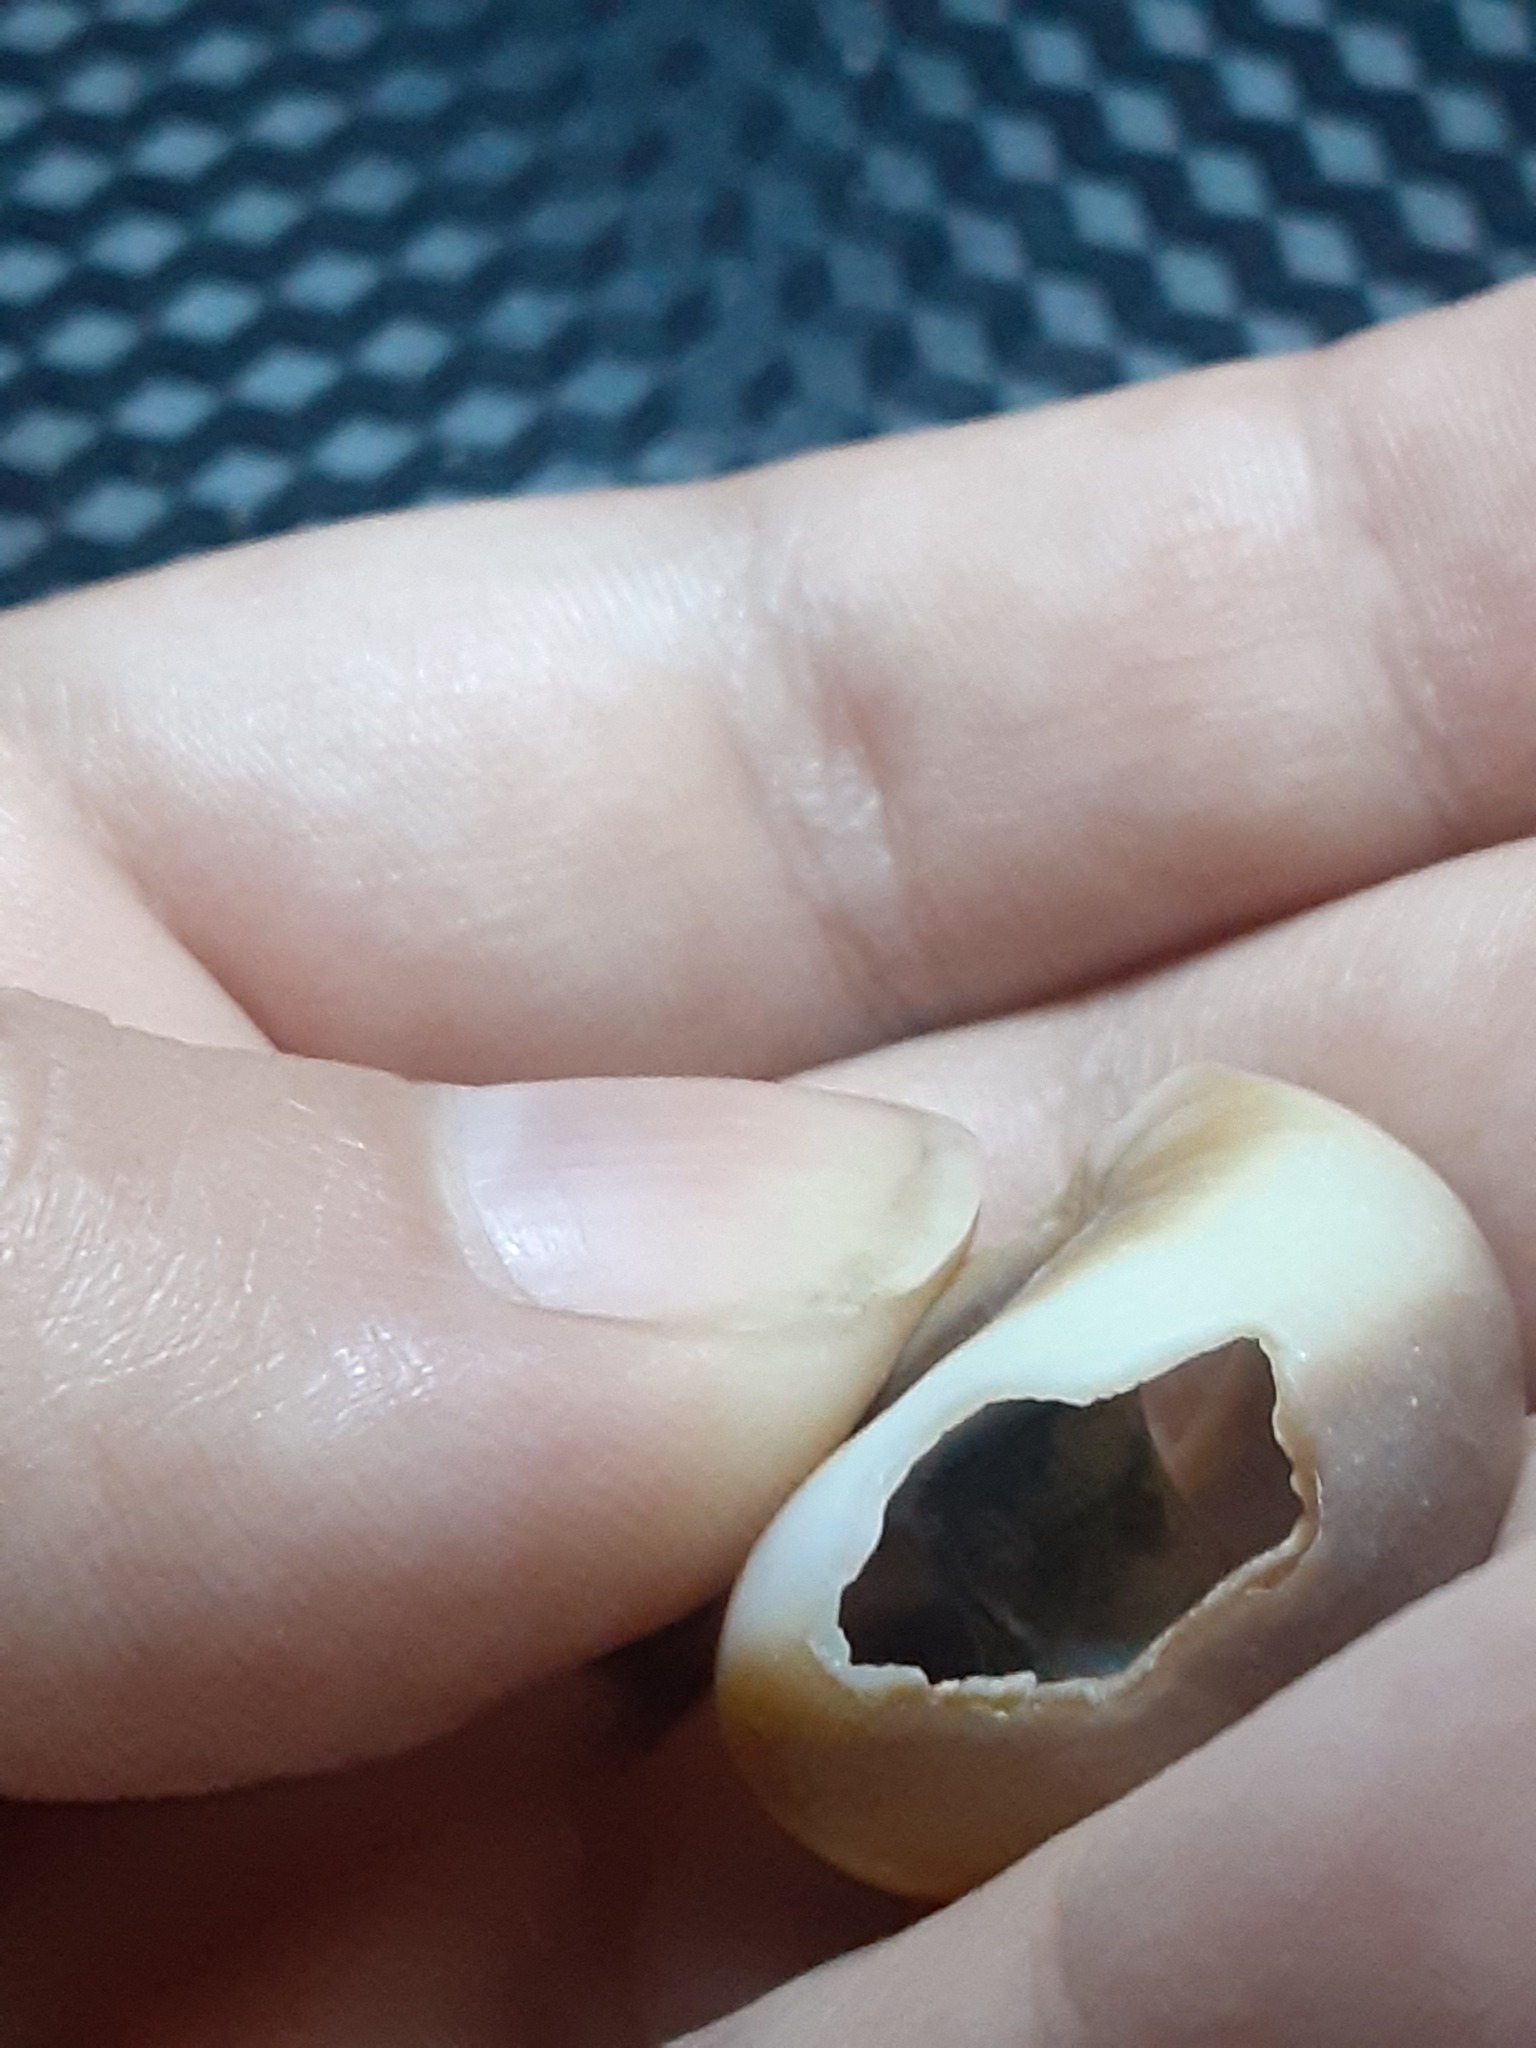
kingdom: Animalia
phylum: Mollusca
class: Gastropoda
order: Littorinimorpha
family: Naticidae
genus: Neverita
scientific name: Neverita duplicata
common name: Lobed moonsnail
